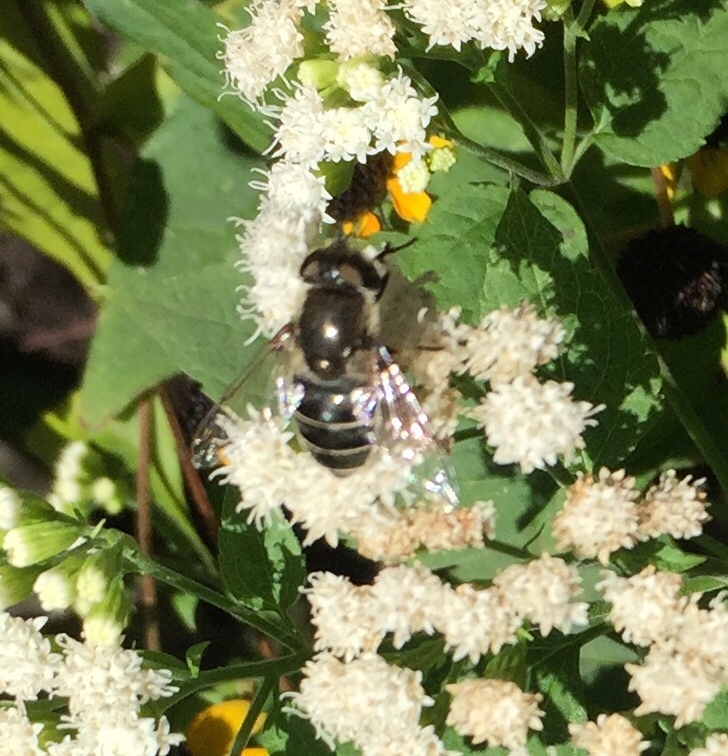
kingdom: Animalia
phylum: Arthropoda
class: Insecta
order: Diptera
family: Syrphidae
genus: Eristalis
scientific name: Eristalis dimidiata
